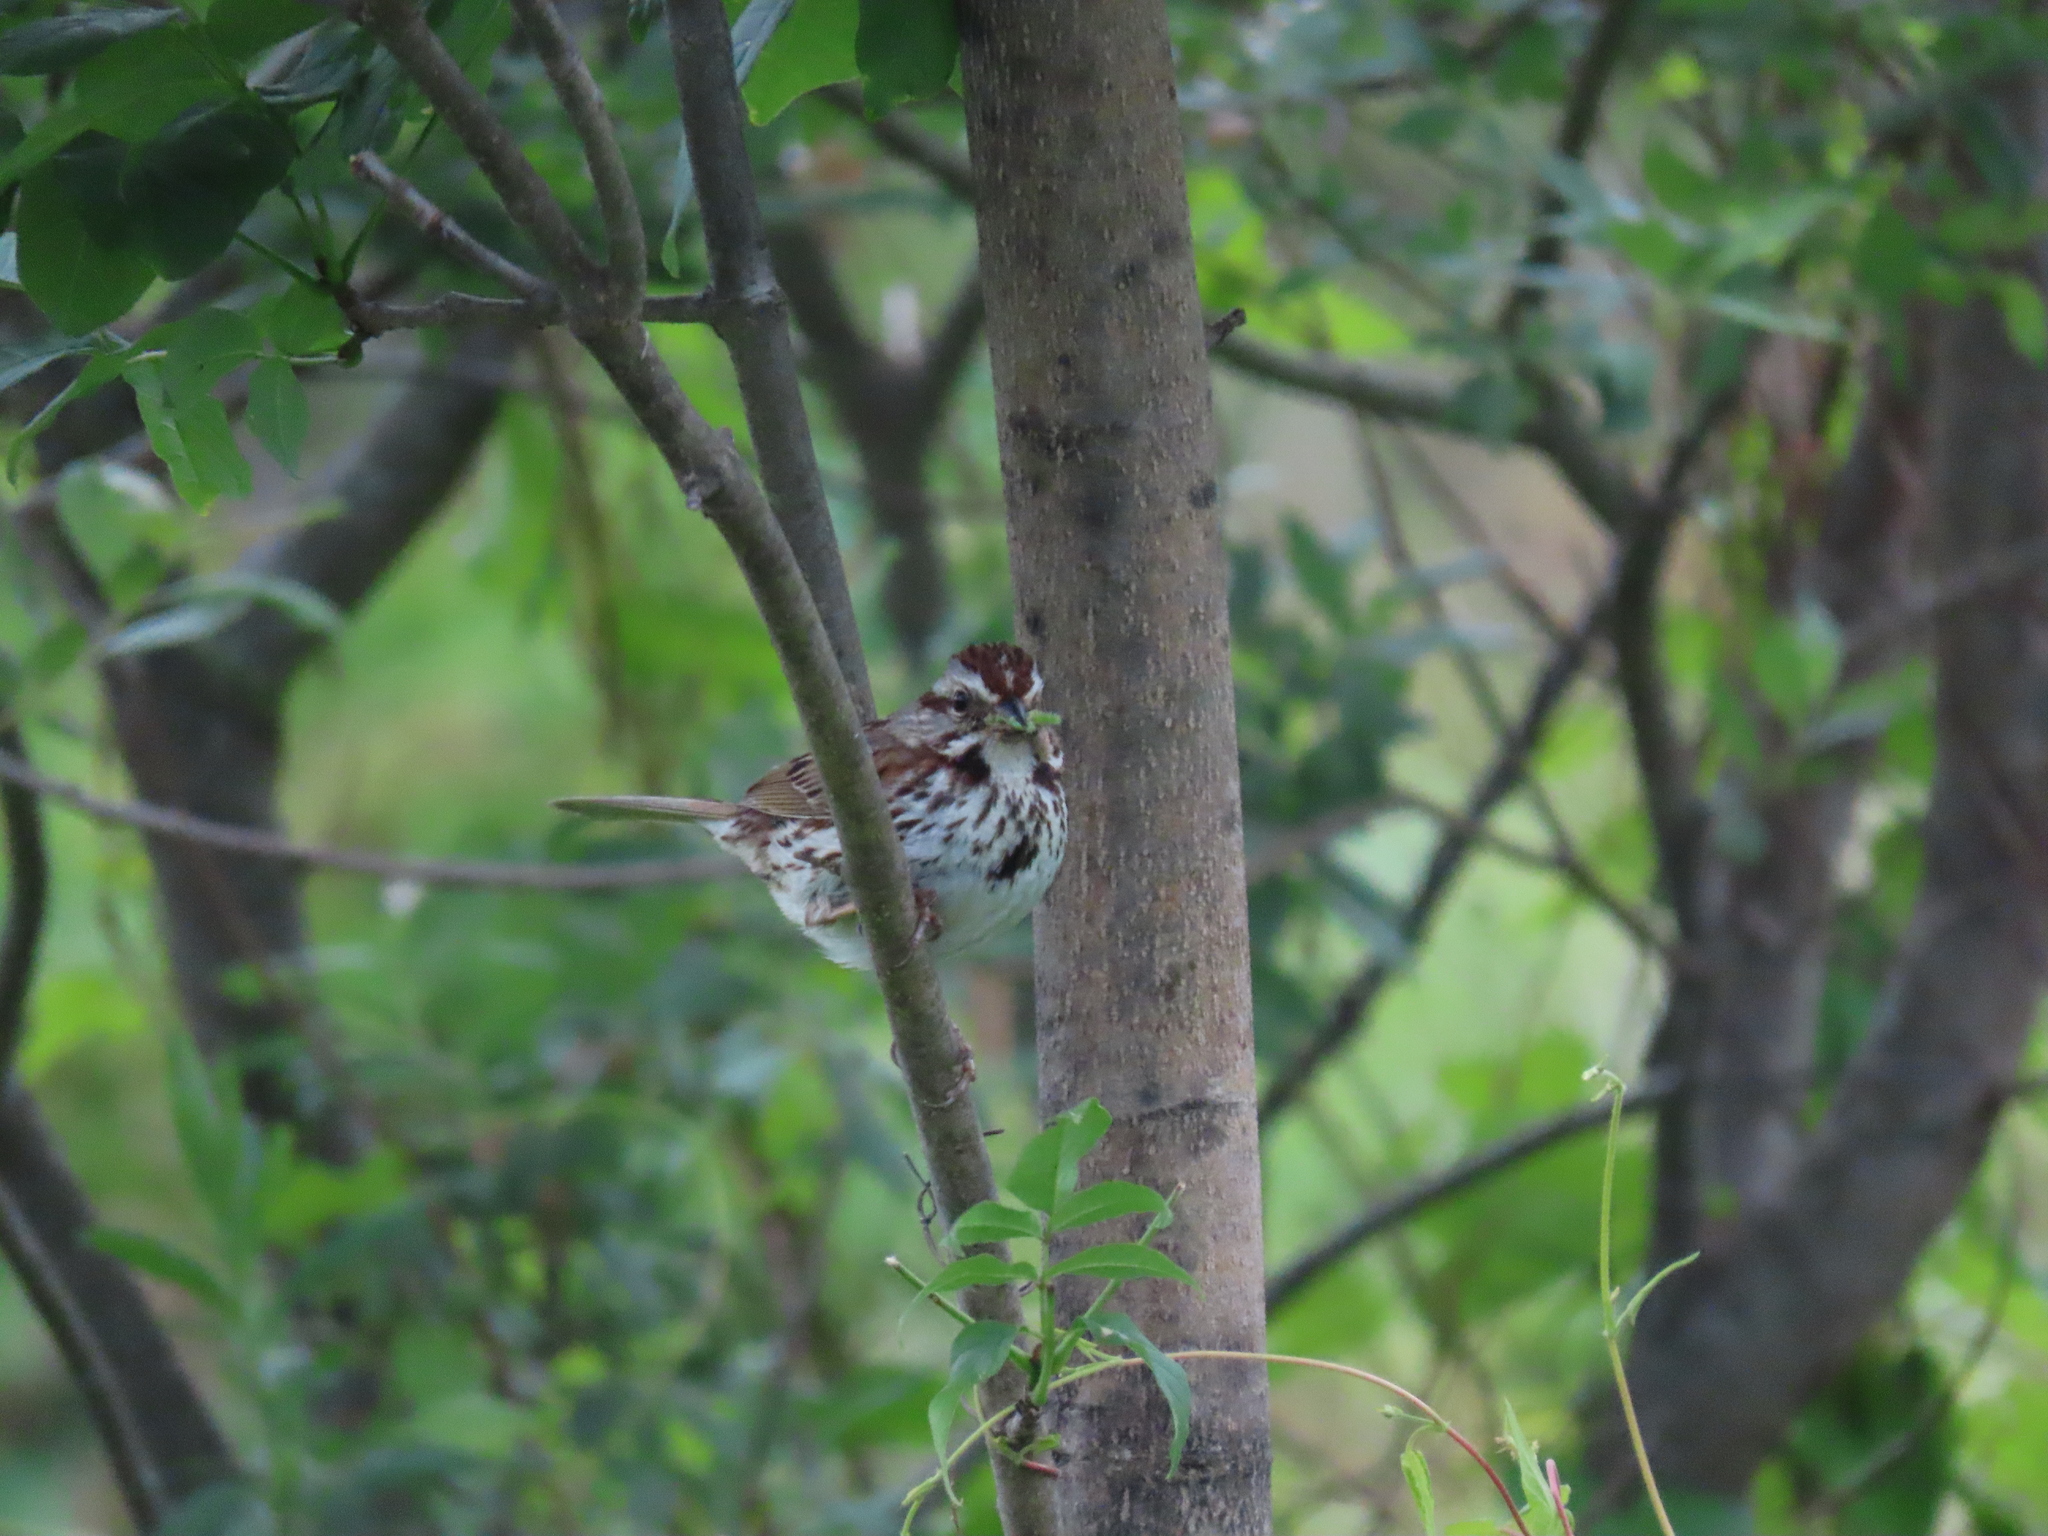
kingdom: Animalia
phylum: Chordata
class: Aves
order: Passeriformes
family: Passerellidae
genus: Melospiza
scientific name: Melospiza melodia
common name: Song sparrow
